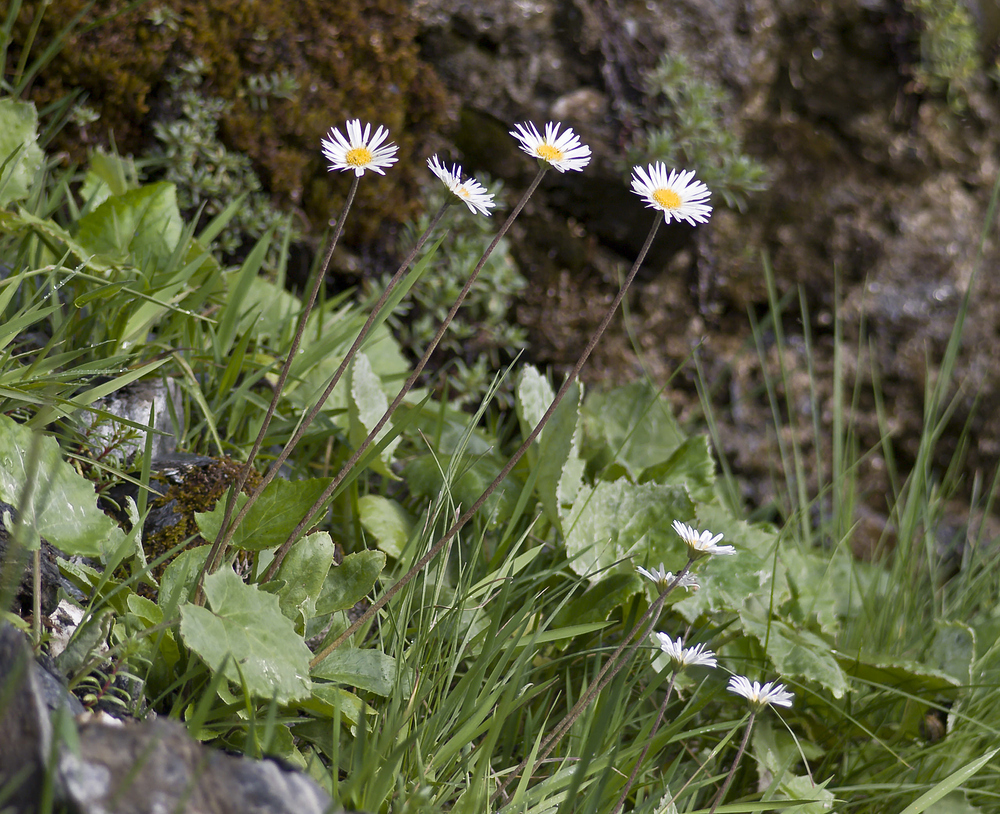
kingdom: Plantae
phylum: Tracheophyta
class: Magnoliopsida
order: Asterales
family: Asteraceae
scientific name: Asteraceae
